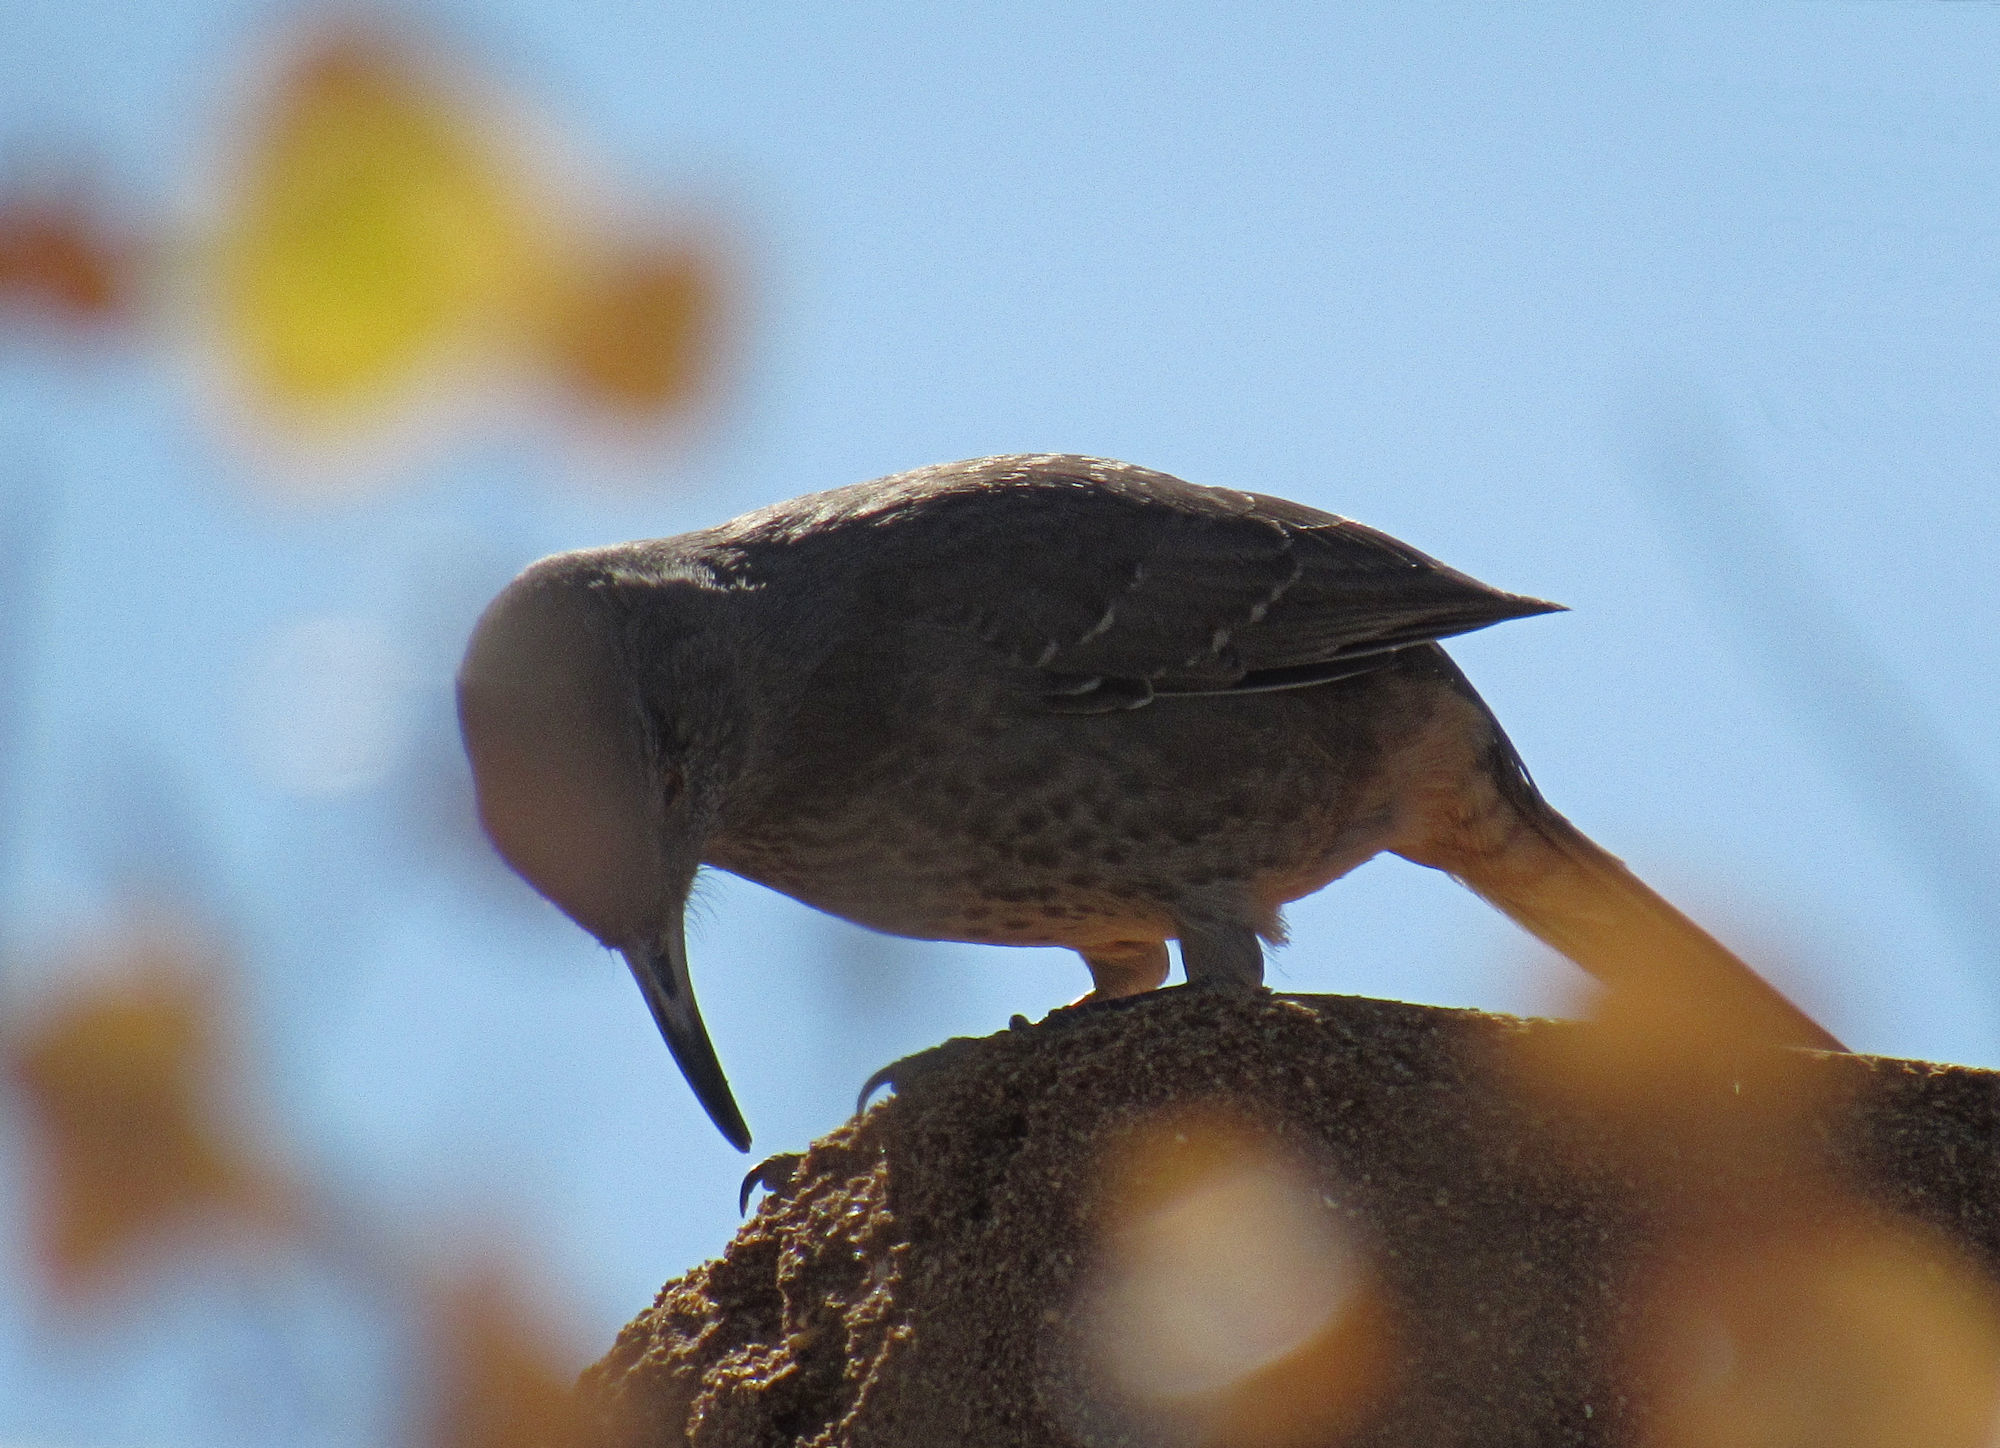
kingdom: Animalia
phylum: Chordata
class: Aves
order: Passeriformes
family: Mimidae
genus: Toxostoma
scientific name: Toxostoma curvirostre
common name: Curve-billed thrasher
